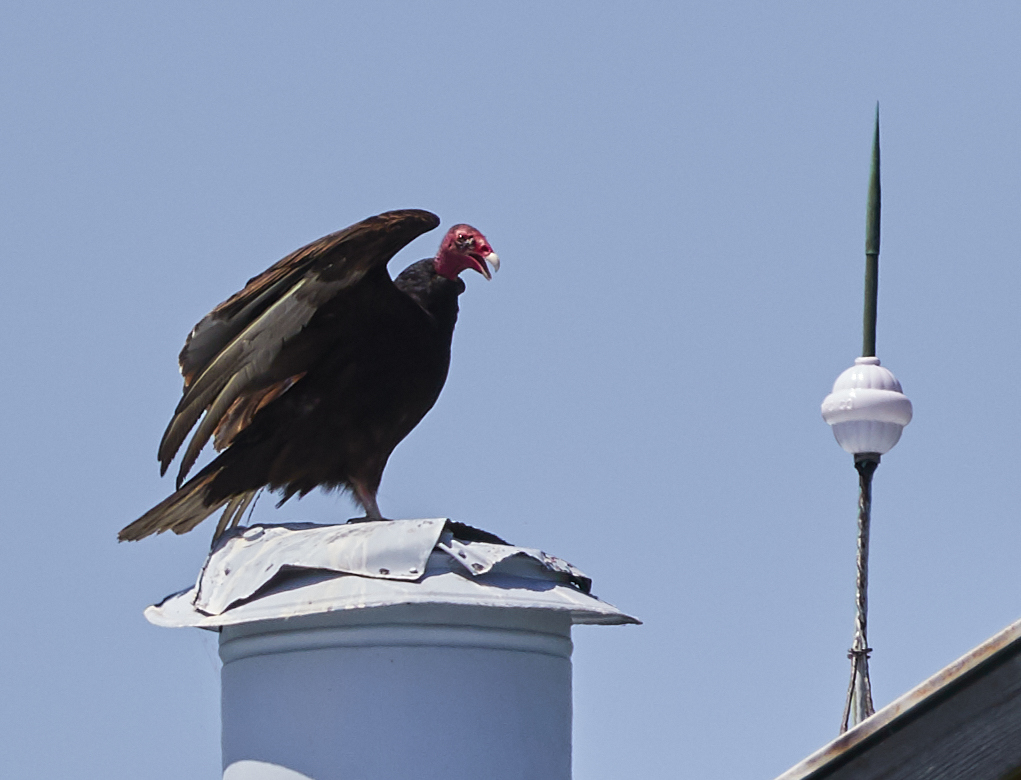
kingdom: Animalia
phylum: Chordata
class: Aves
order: Accipitriformes
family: Cathartidae
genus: Cathartes
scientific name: Cathartes aura
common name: Turkey vulture
